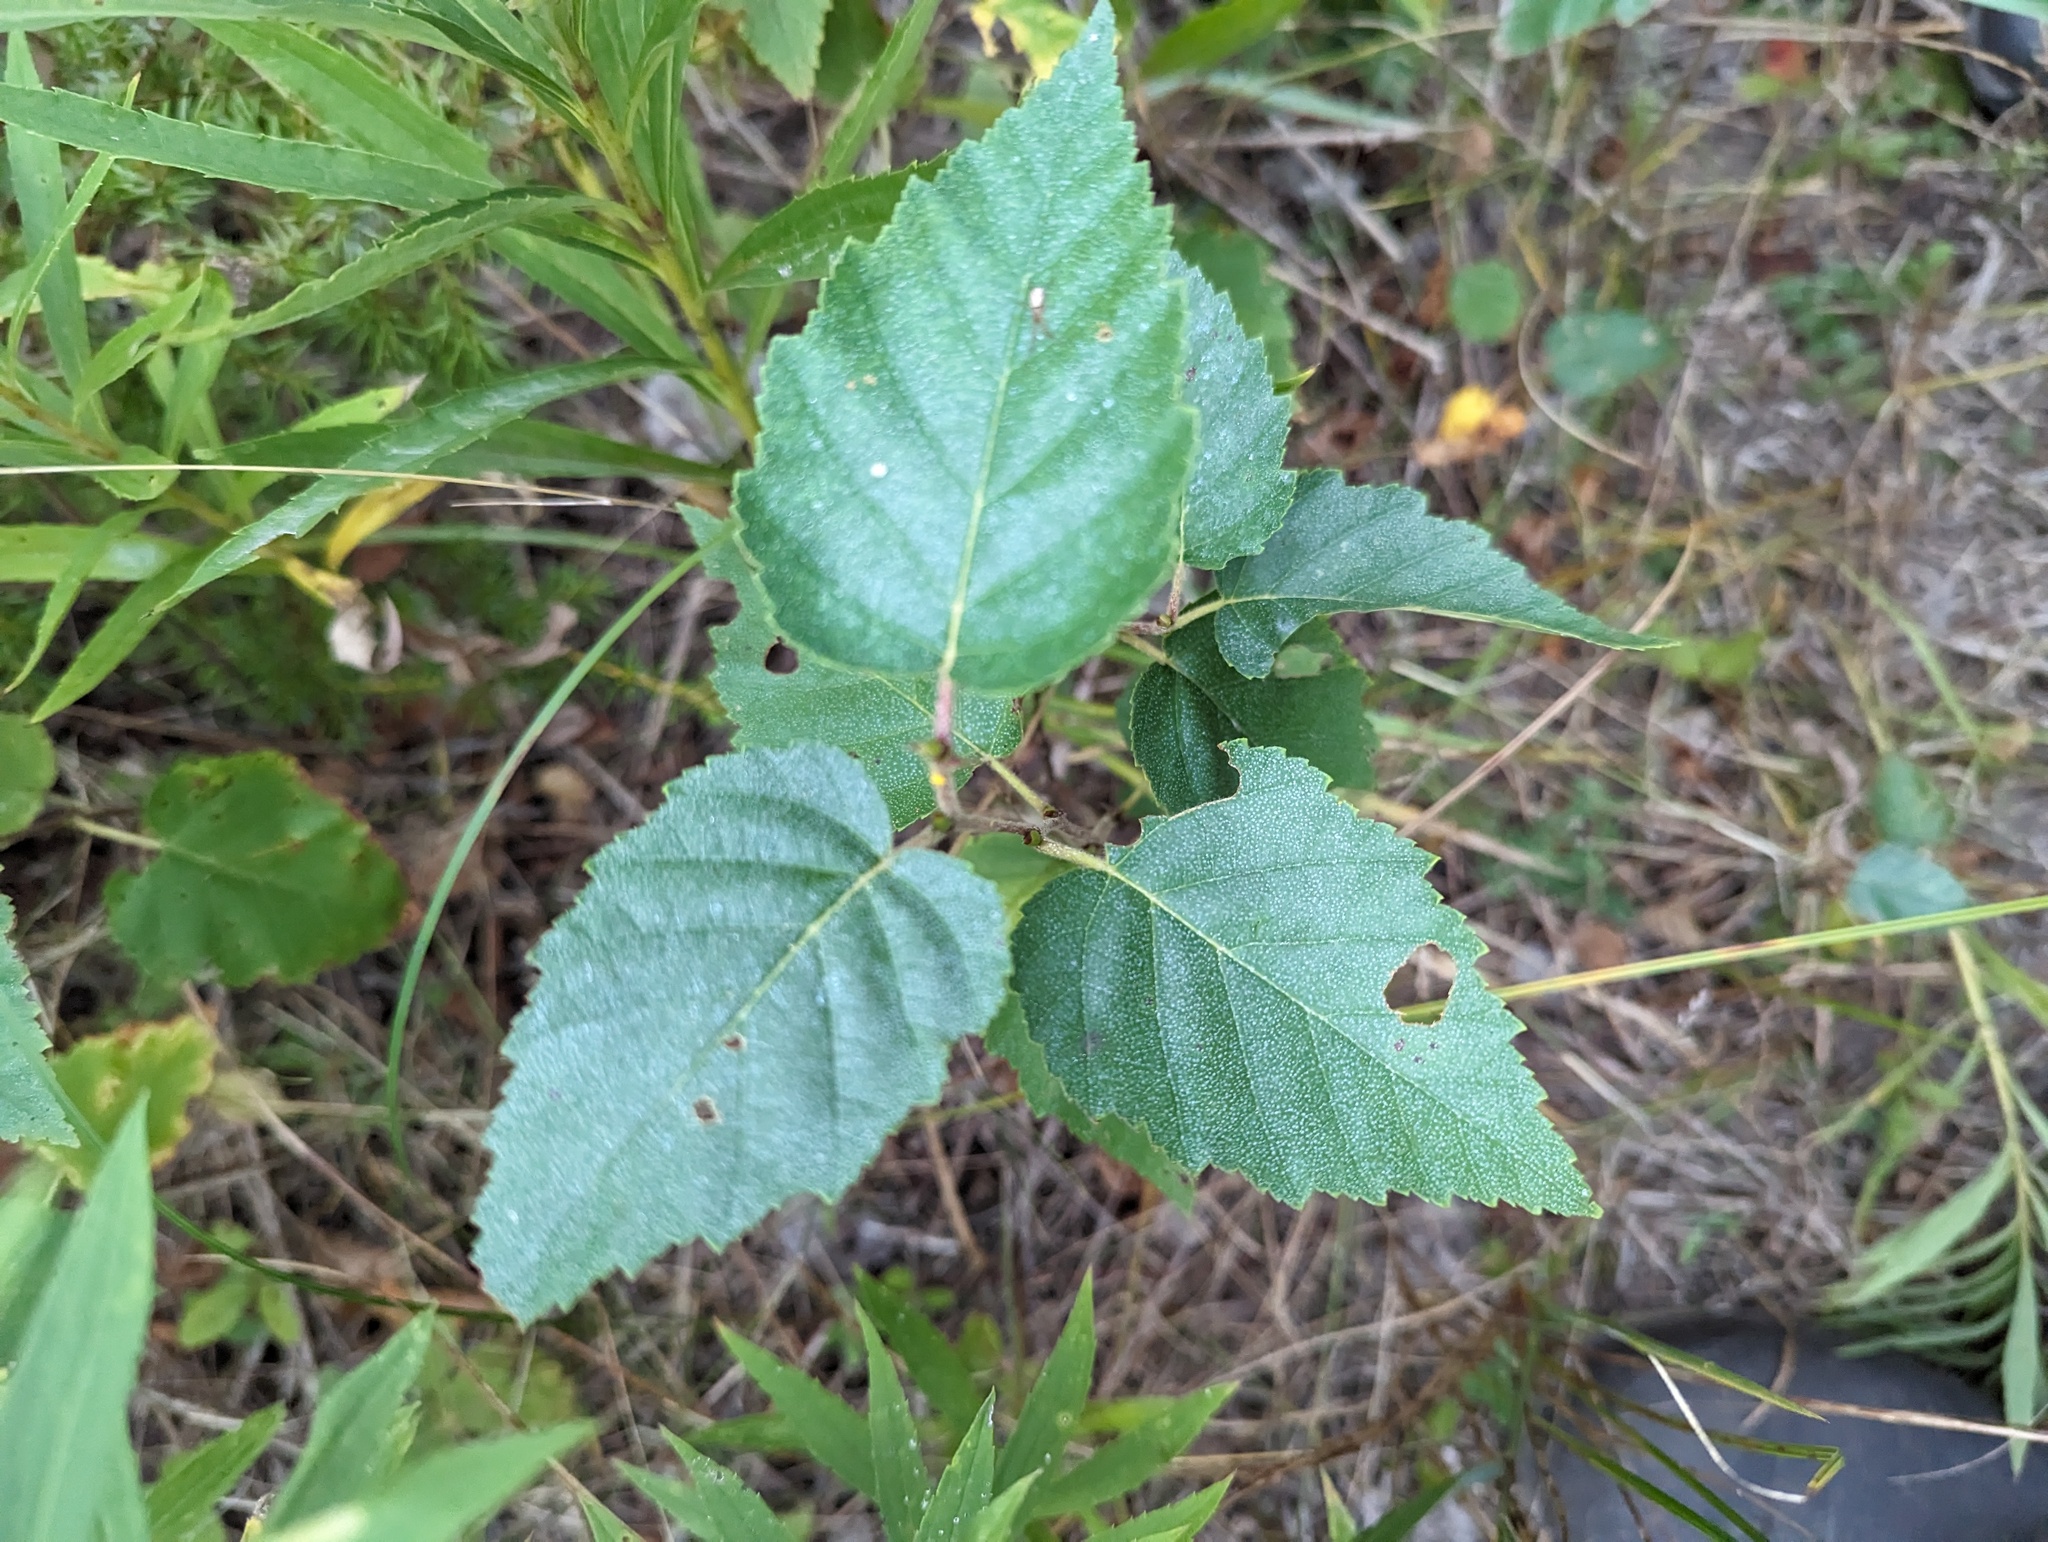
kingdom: Plantae
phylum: Tracheophyta
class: Magnoliopsida
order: Fagales
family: Betulaceae
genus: Betula
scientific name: Betula papyrifera
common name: Paper birch
